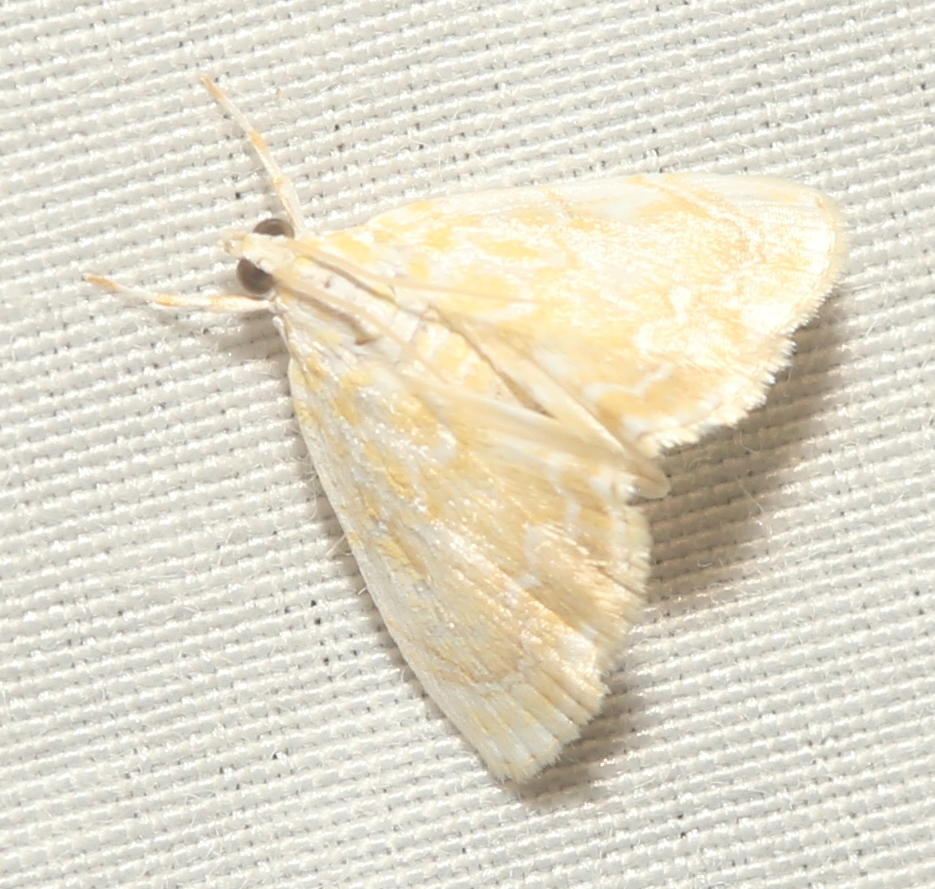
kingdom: Animalia
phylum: Arthropoda
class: Insecta
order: Lepidoptera
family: Crambidae
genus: Glaphyria
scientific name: Glaphyria glaphyralis
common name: Common glaphyria moth
